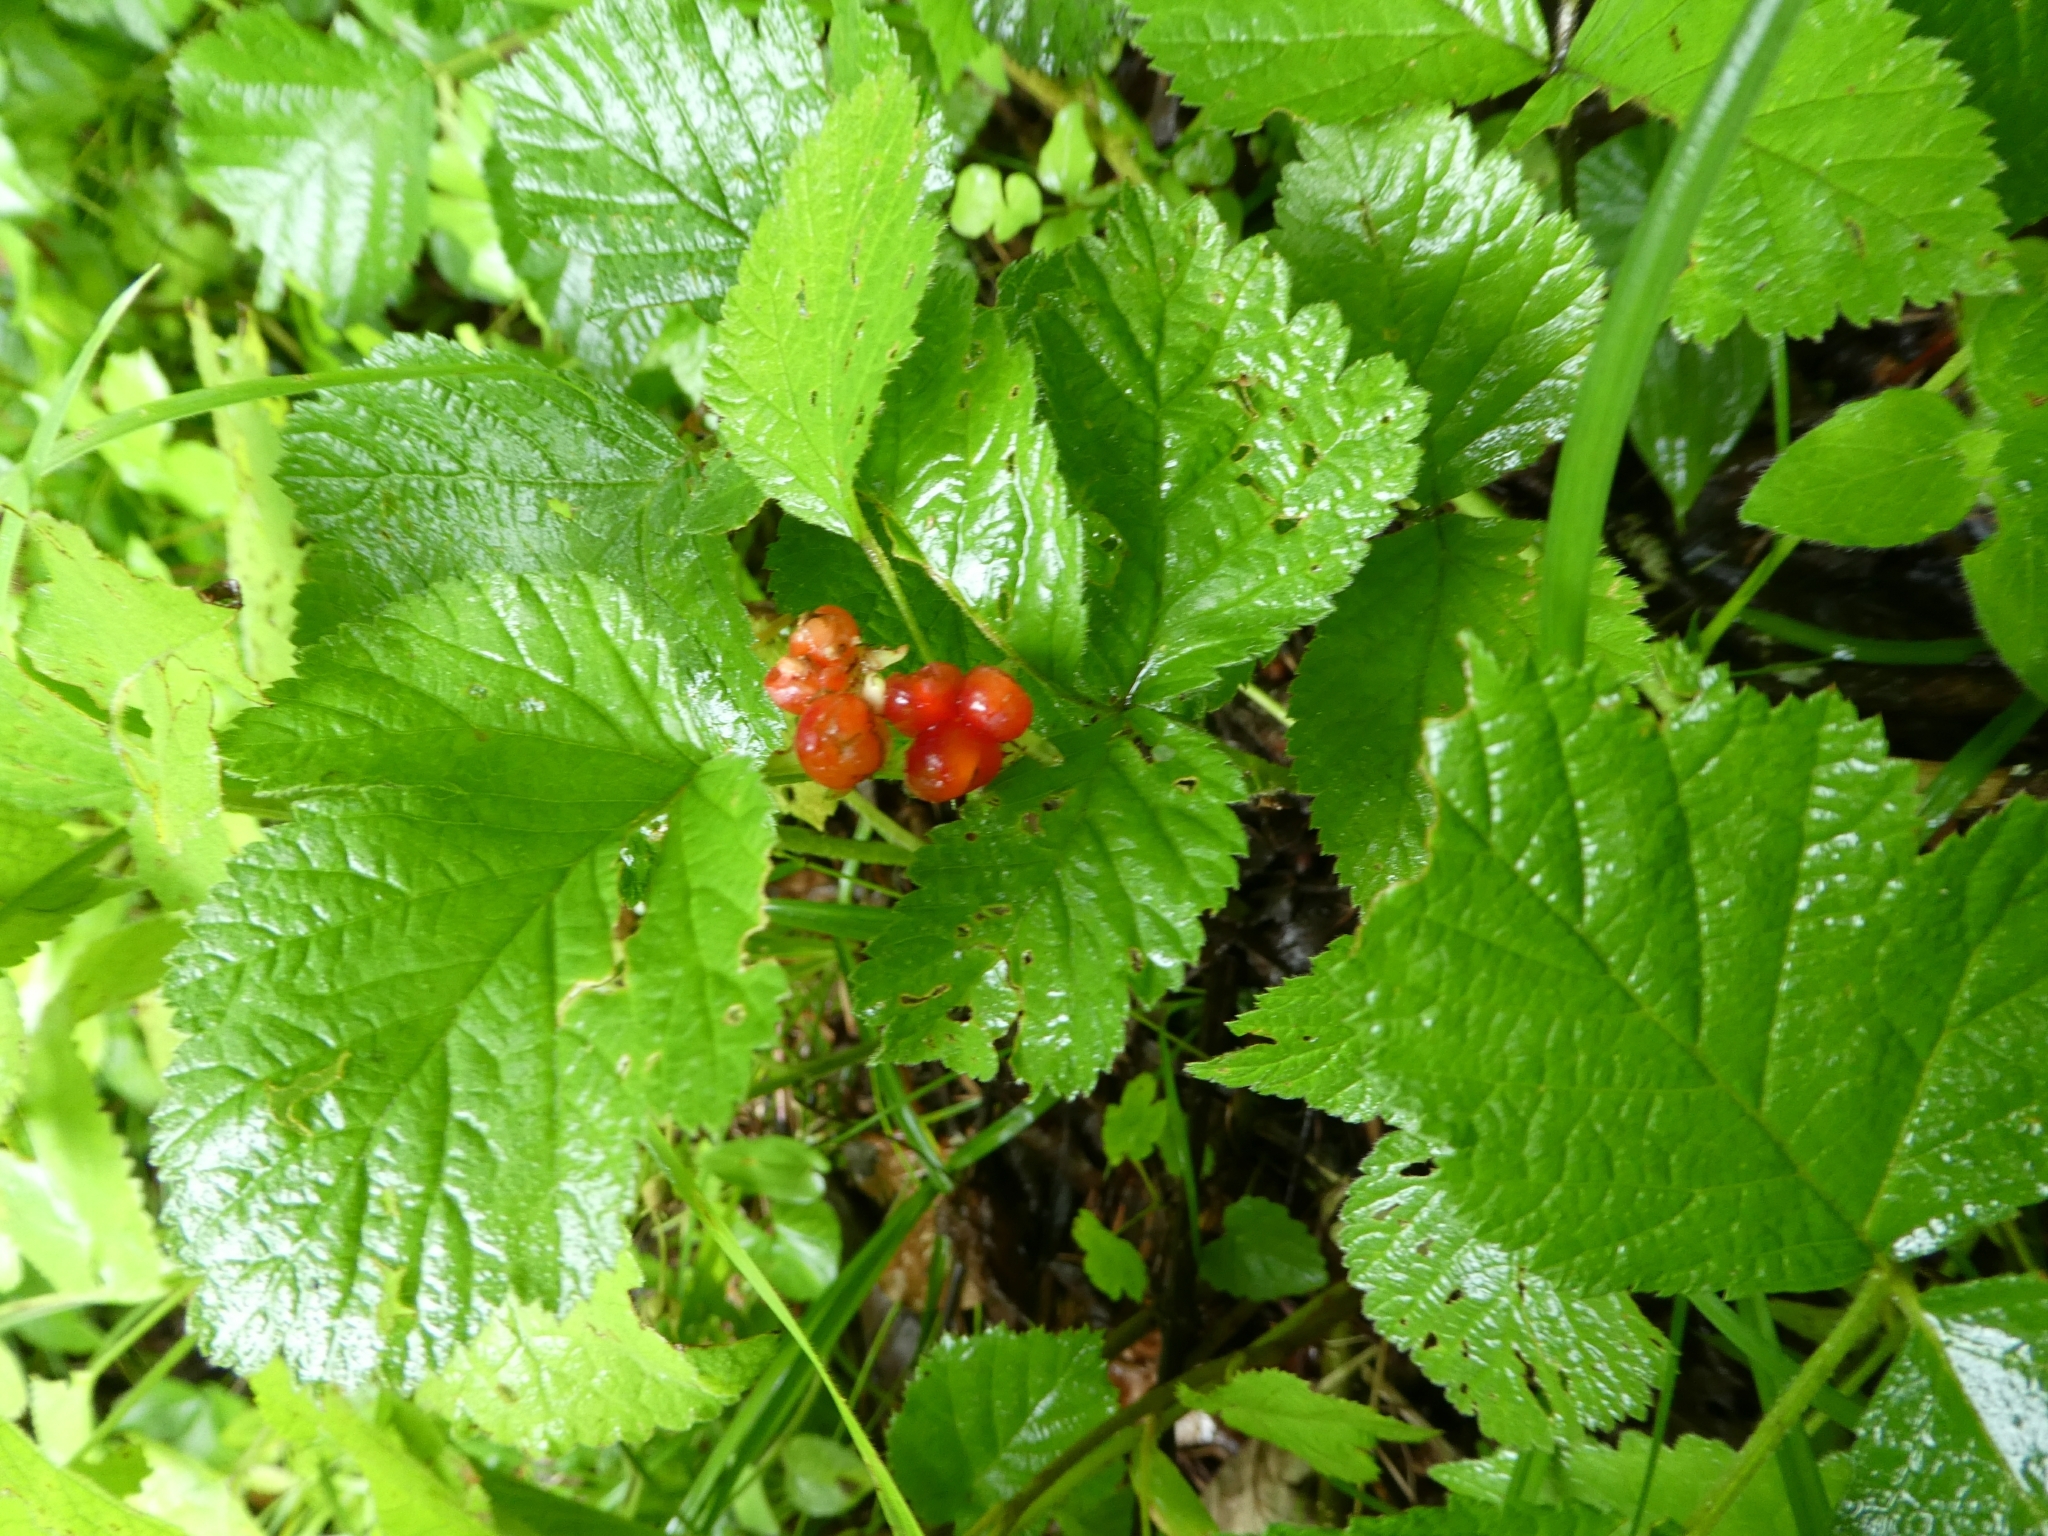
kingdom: Plantae
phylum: Tracheophyta
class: Magnoliopsida
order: Rosales
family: Rosaceae
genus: Rubus
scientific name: Rubus saxatilis
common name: Stone bramble
